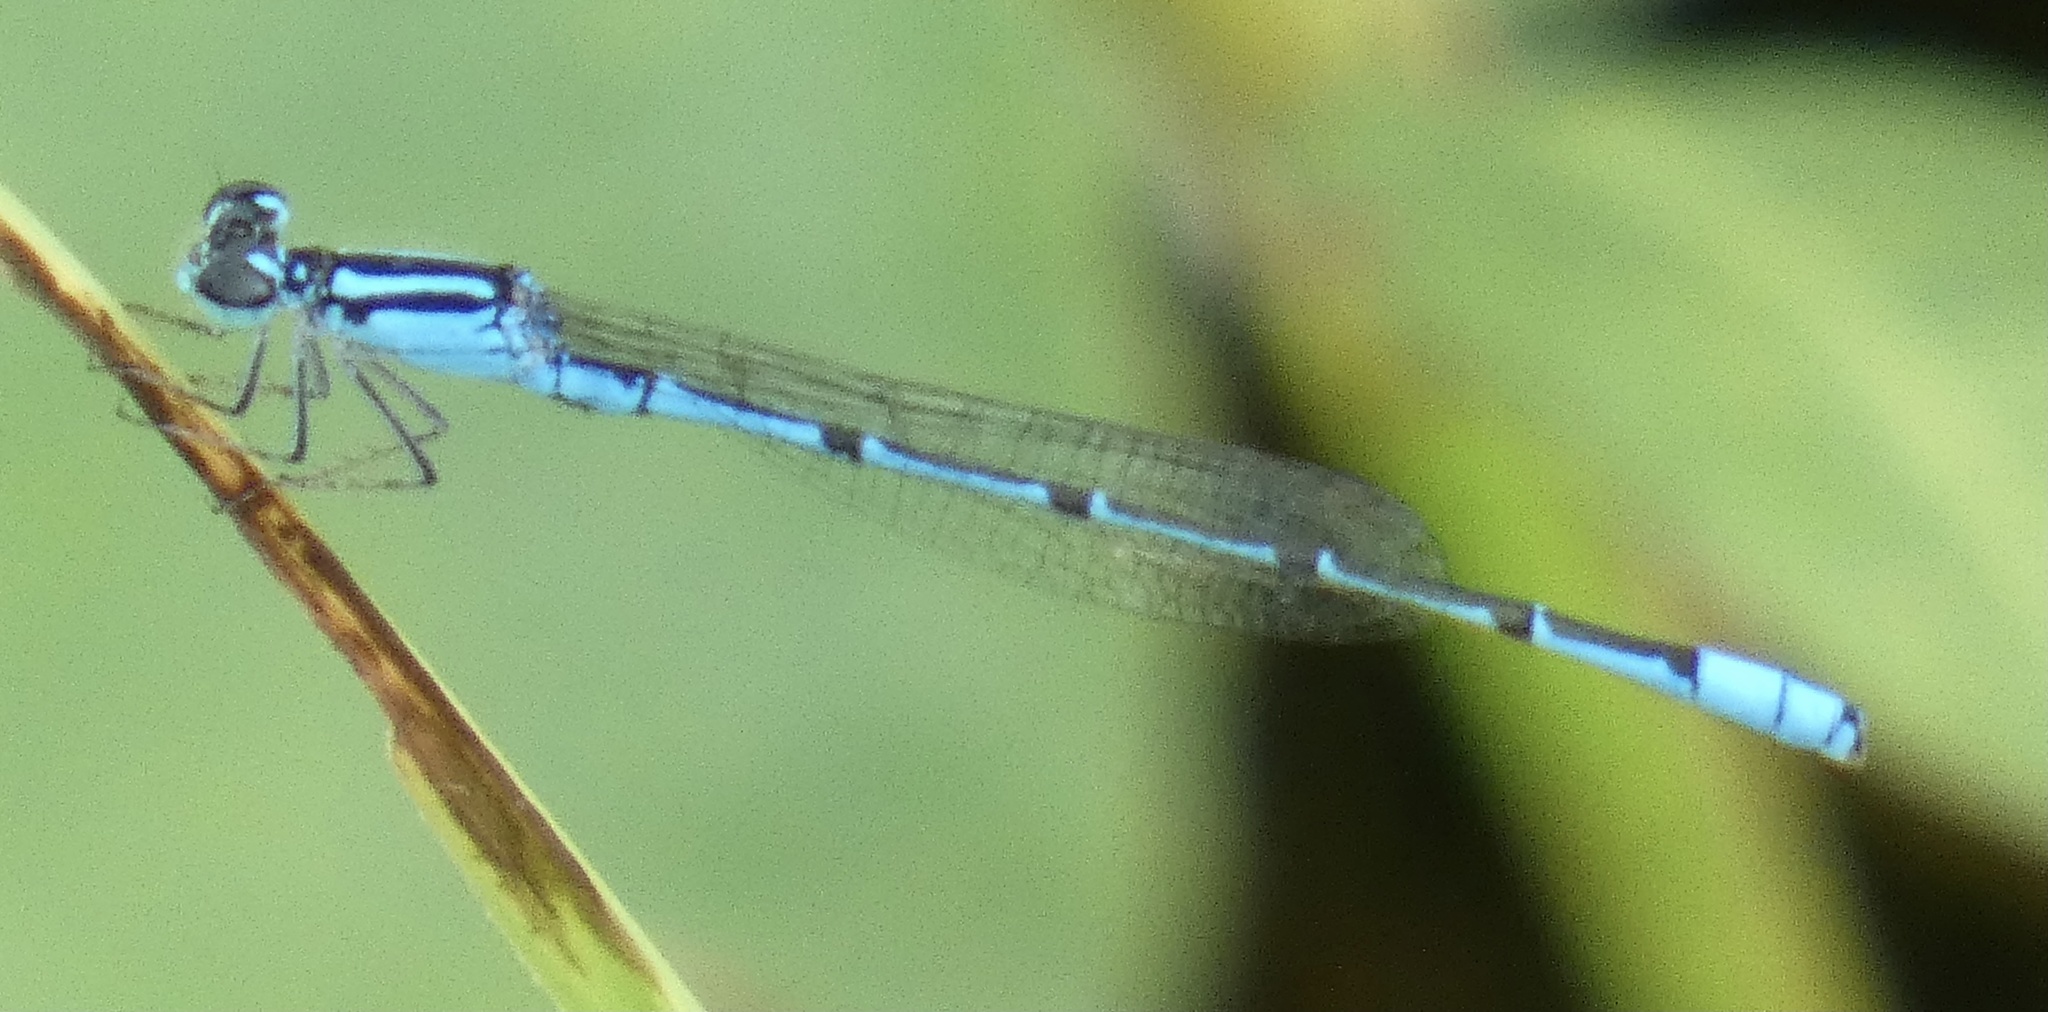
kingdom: Animalia
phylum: Arthropoda
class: Insecta
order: Odonata
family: Coenagrionidae
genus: Acanthagrion
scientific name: Acanthagrion temporale
